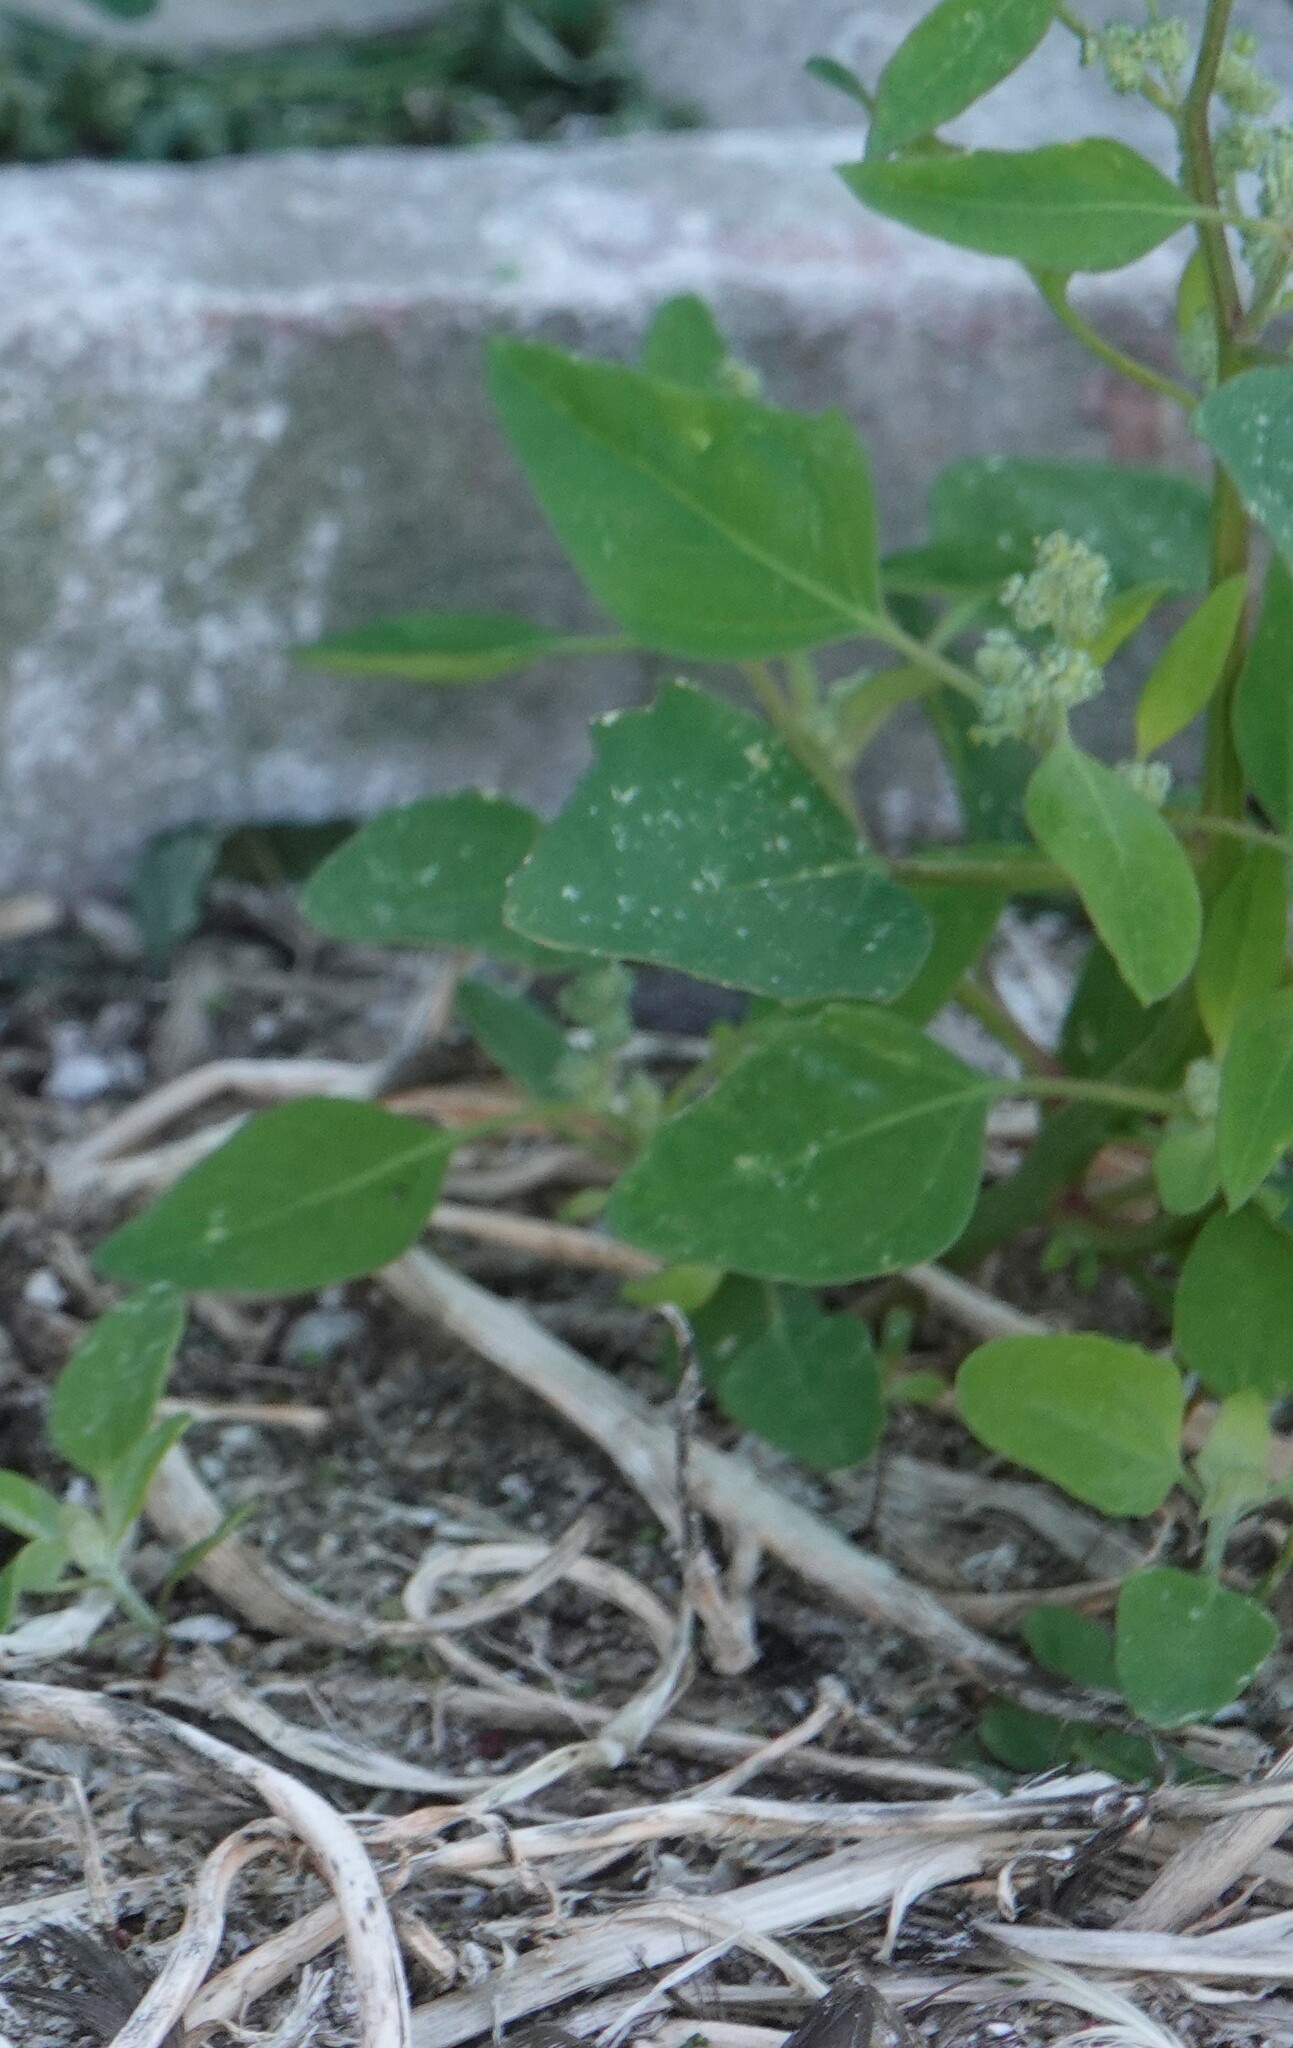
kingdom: Plantae
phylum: Tracheophyta
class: Magnoliopsida
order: Caryophyllales
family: Amaranthaceae
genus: Chenopodium
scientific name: Chenopodium album
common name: Fat-hen
